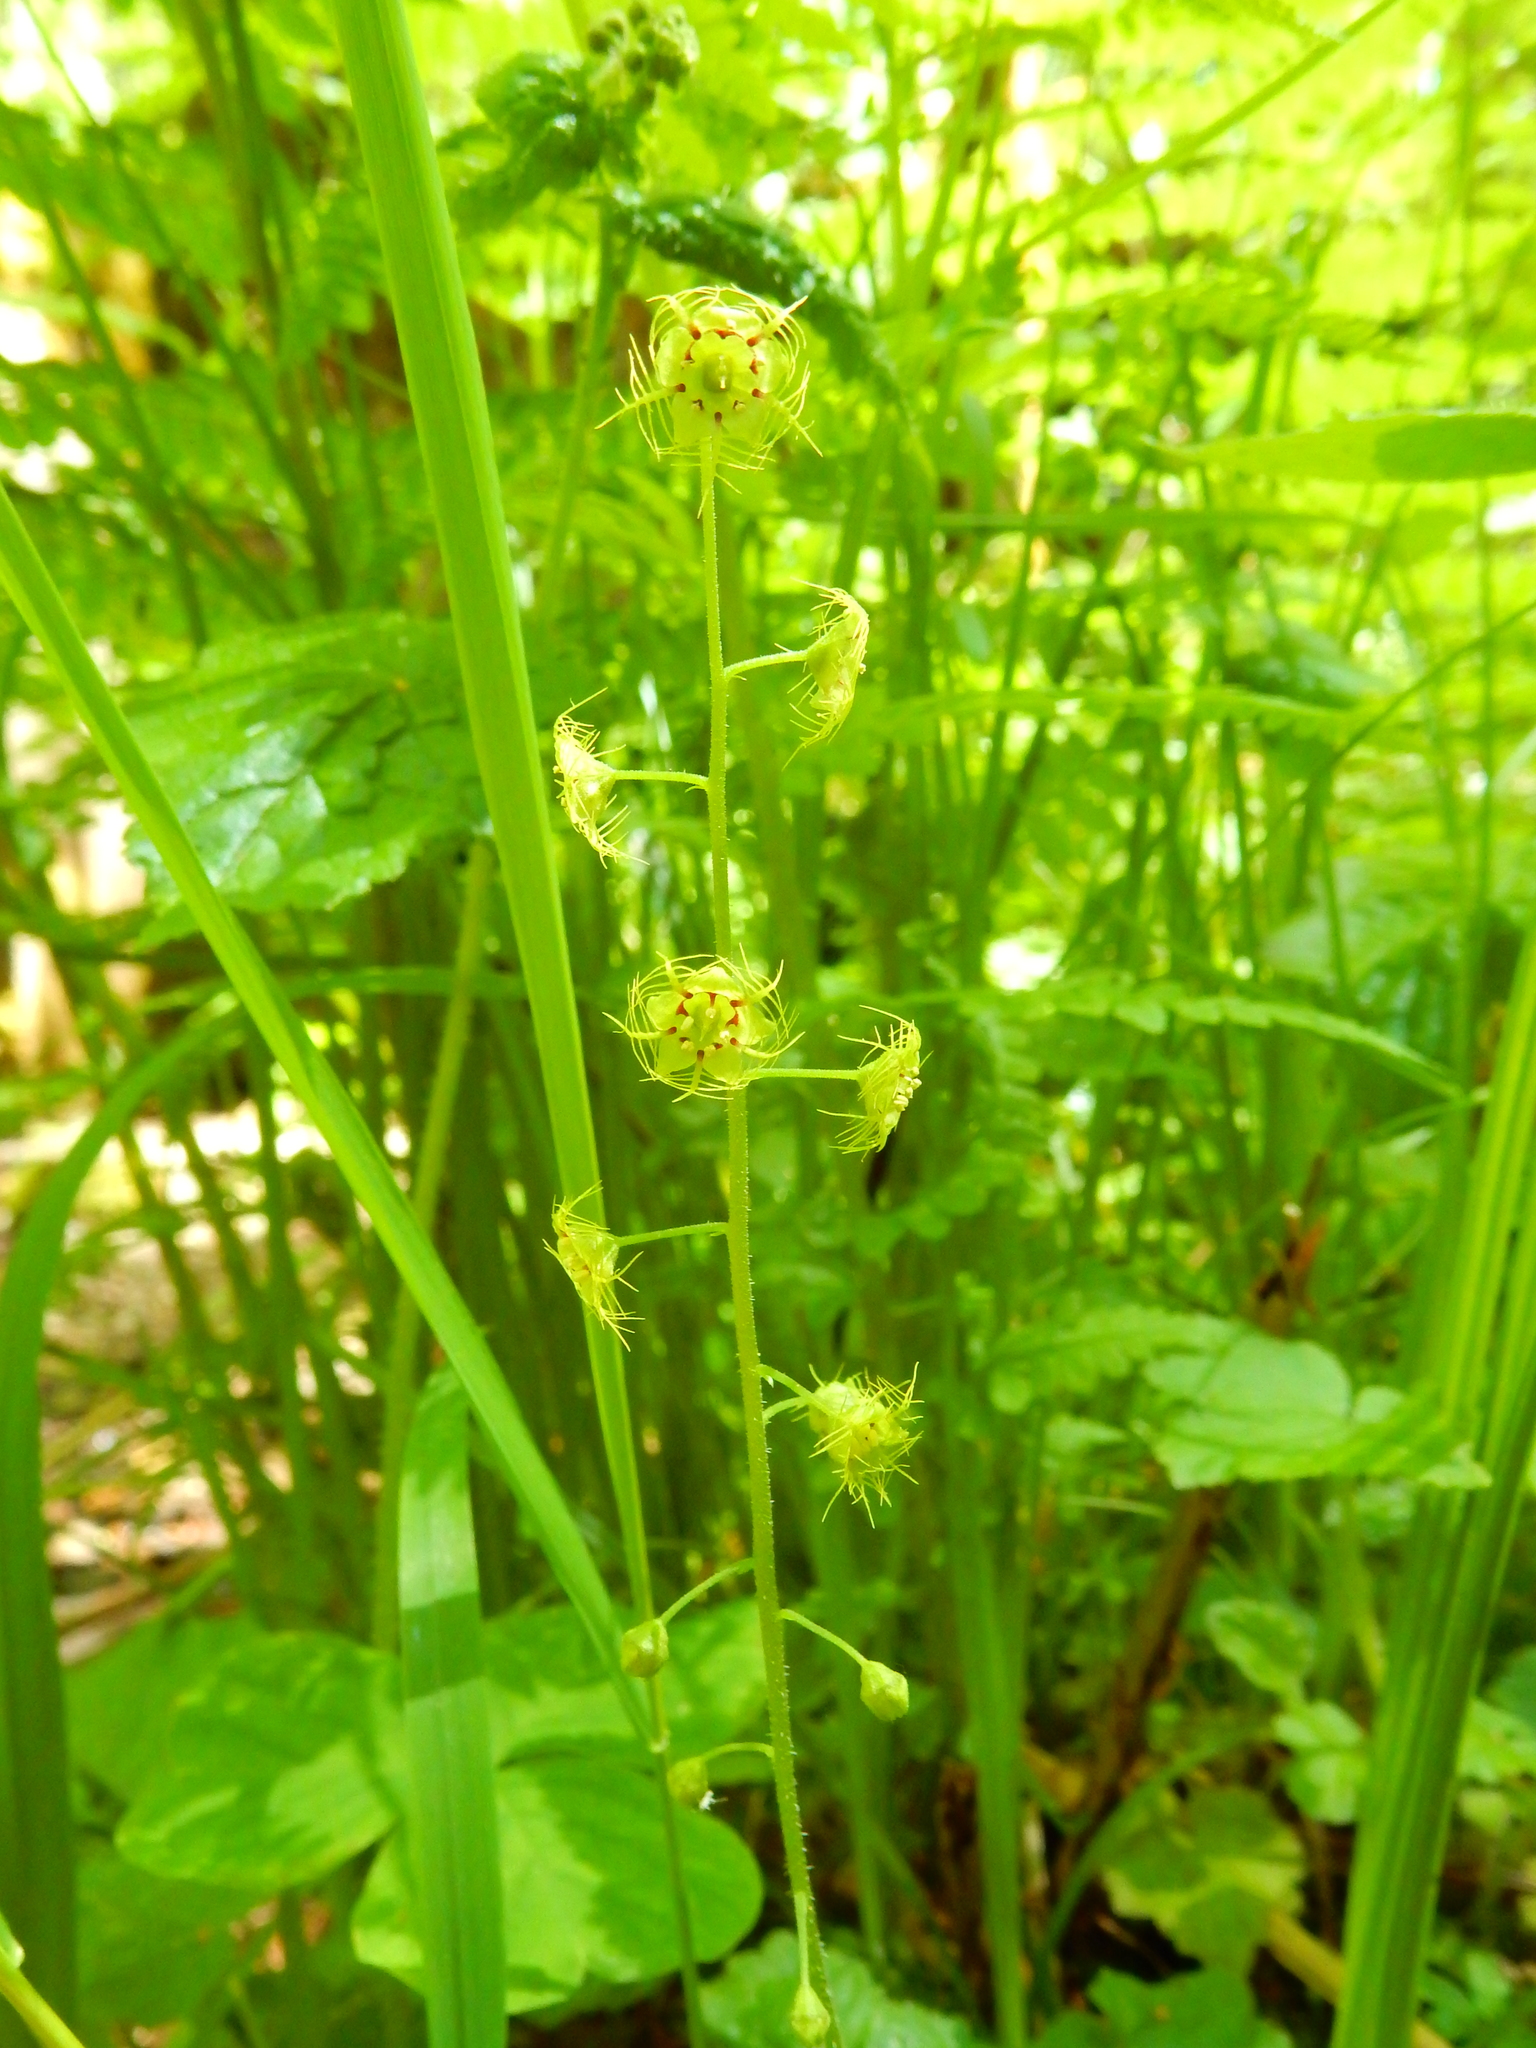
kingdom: Plantae
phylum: Tracheophyta
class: Magnoliopsida
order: Saxifragales
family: Saxifragaceae
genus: Mitellastra
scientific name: Mitellastra caulescens
